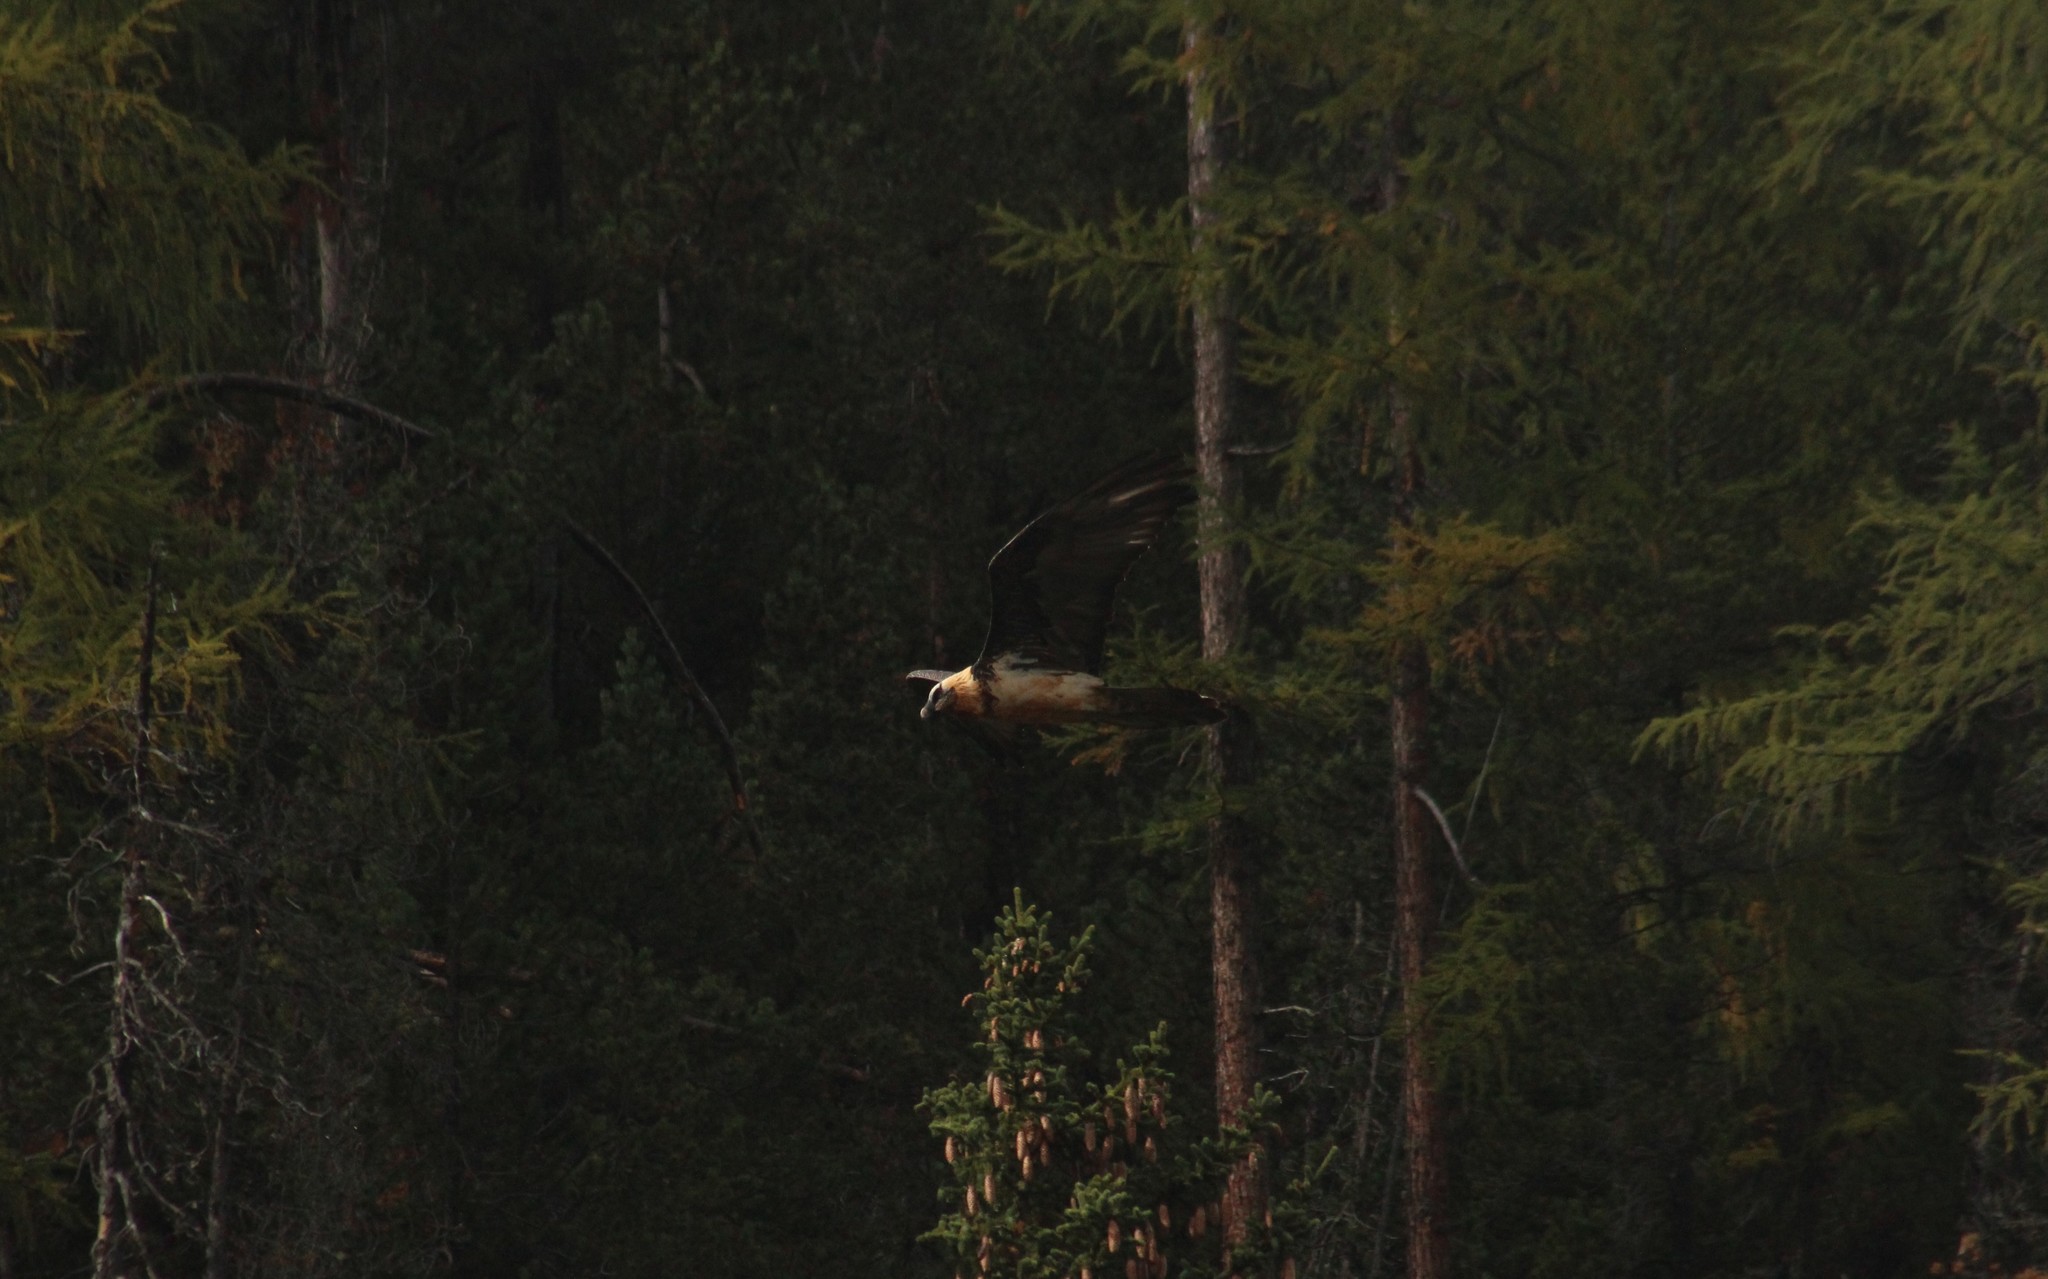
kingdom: Animalia
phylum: Chordata
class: Aves
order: Accipitriformes
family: Accipitridae
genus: Gypaetus
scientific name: Gypaetus barbatus
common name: Bearded vulture
